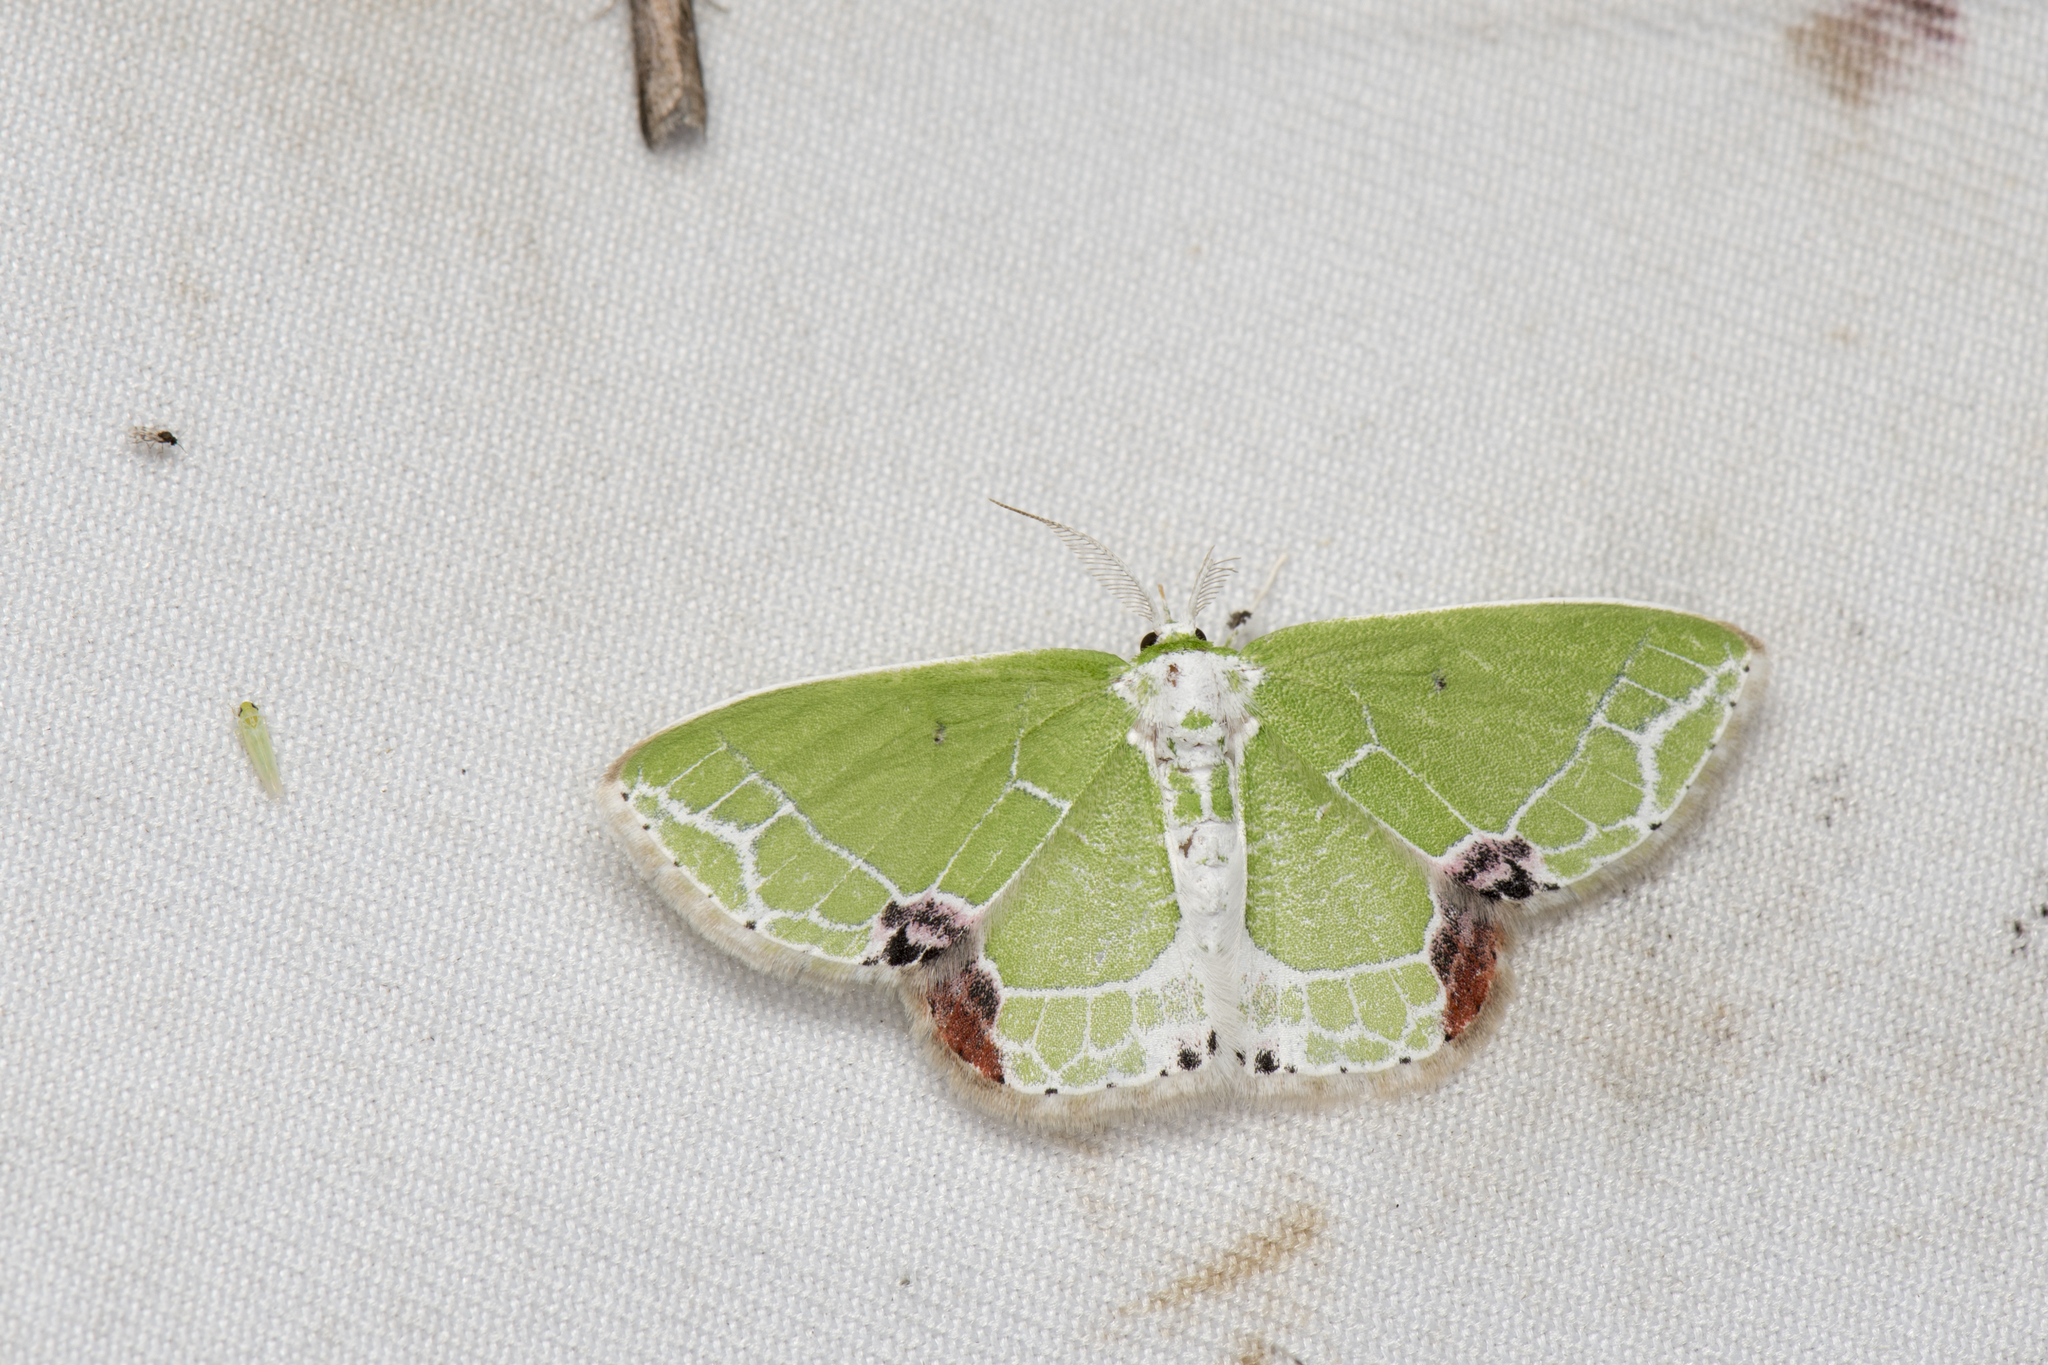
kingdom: Animalia
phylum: Arthropoda
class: Insecta
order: Lepidoptera
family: Geometridae
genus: Protuliocnemis
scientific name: Protuliocnemis castalaria
